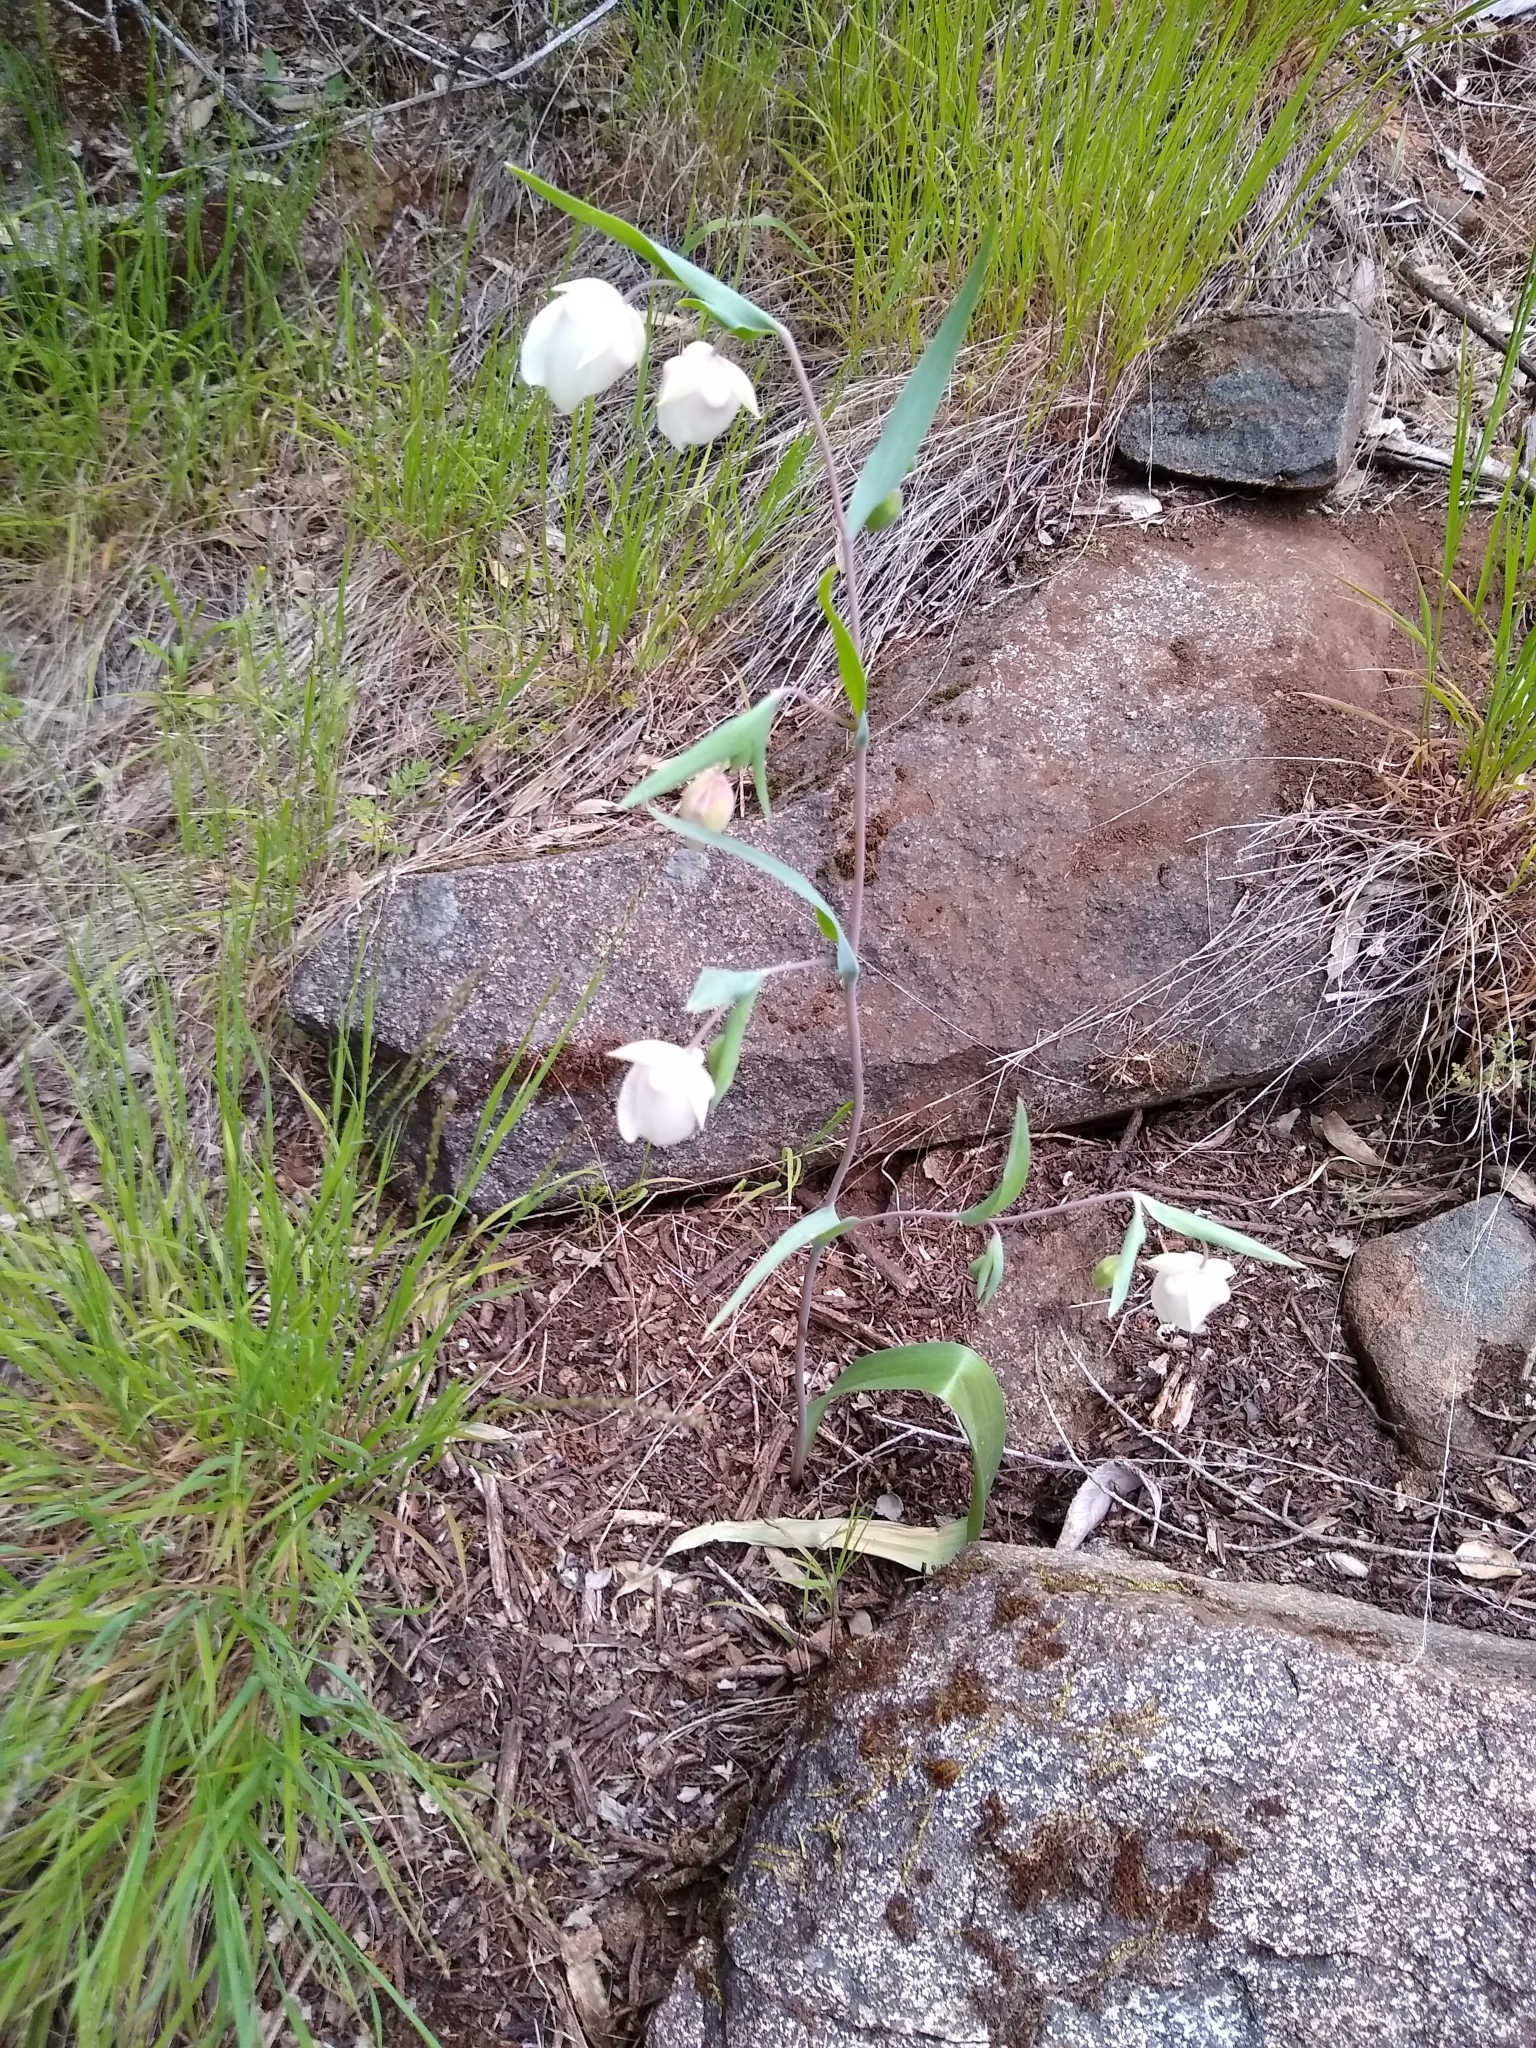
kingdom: Plantae
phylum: Tracheophyta
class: Liliopsida
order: Liliales
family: Liliaceae
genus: Calochortus
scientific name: Calochortus albus
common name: Fairy-lantern
